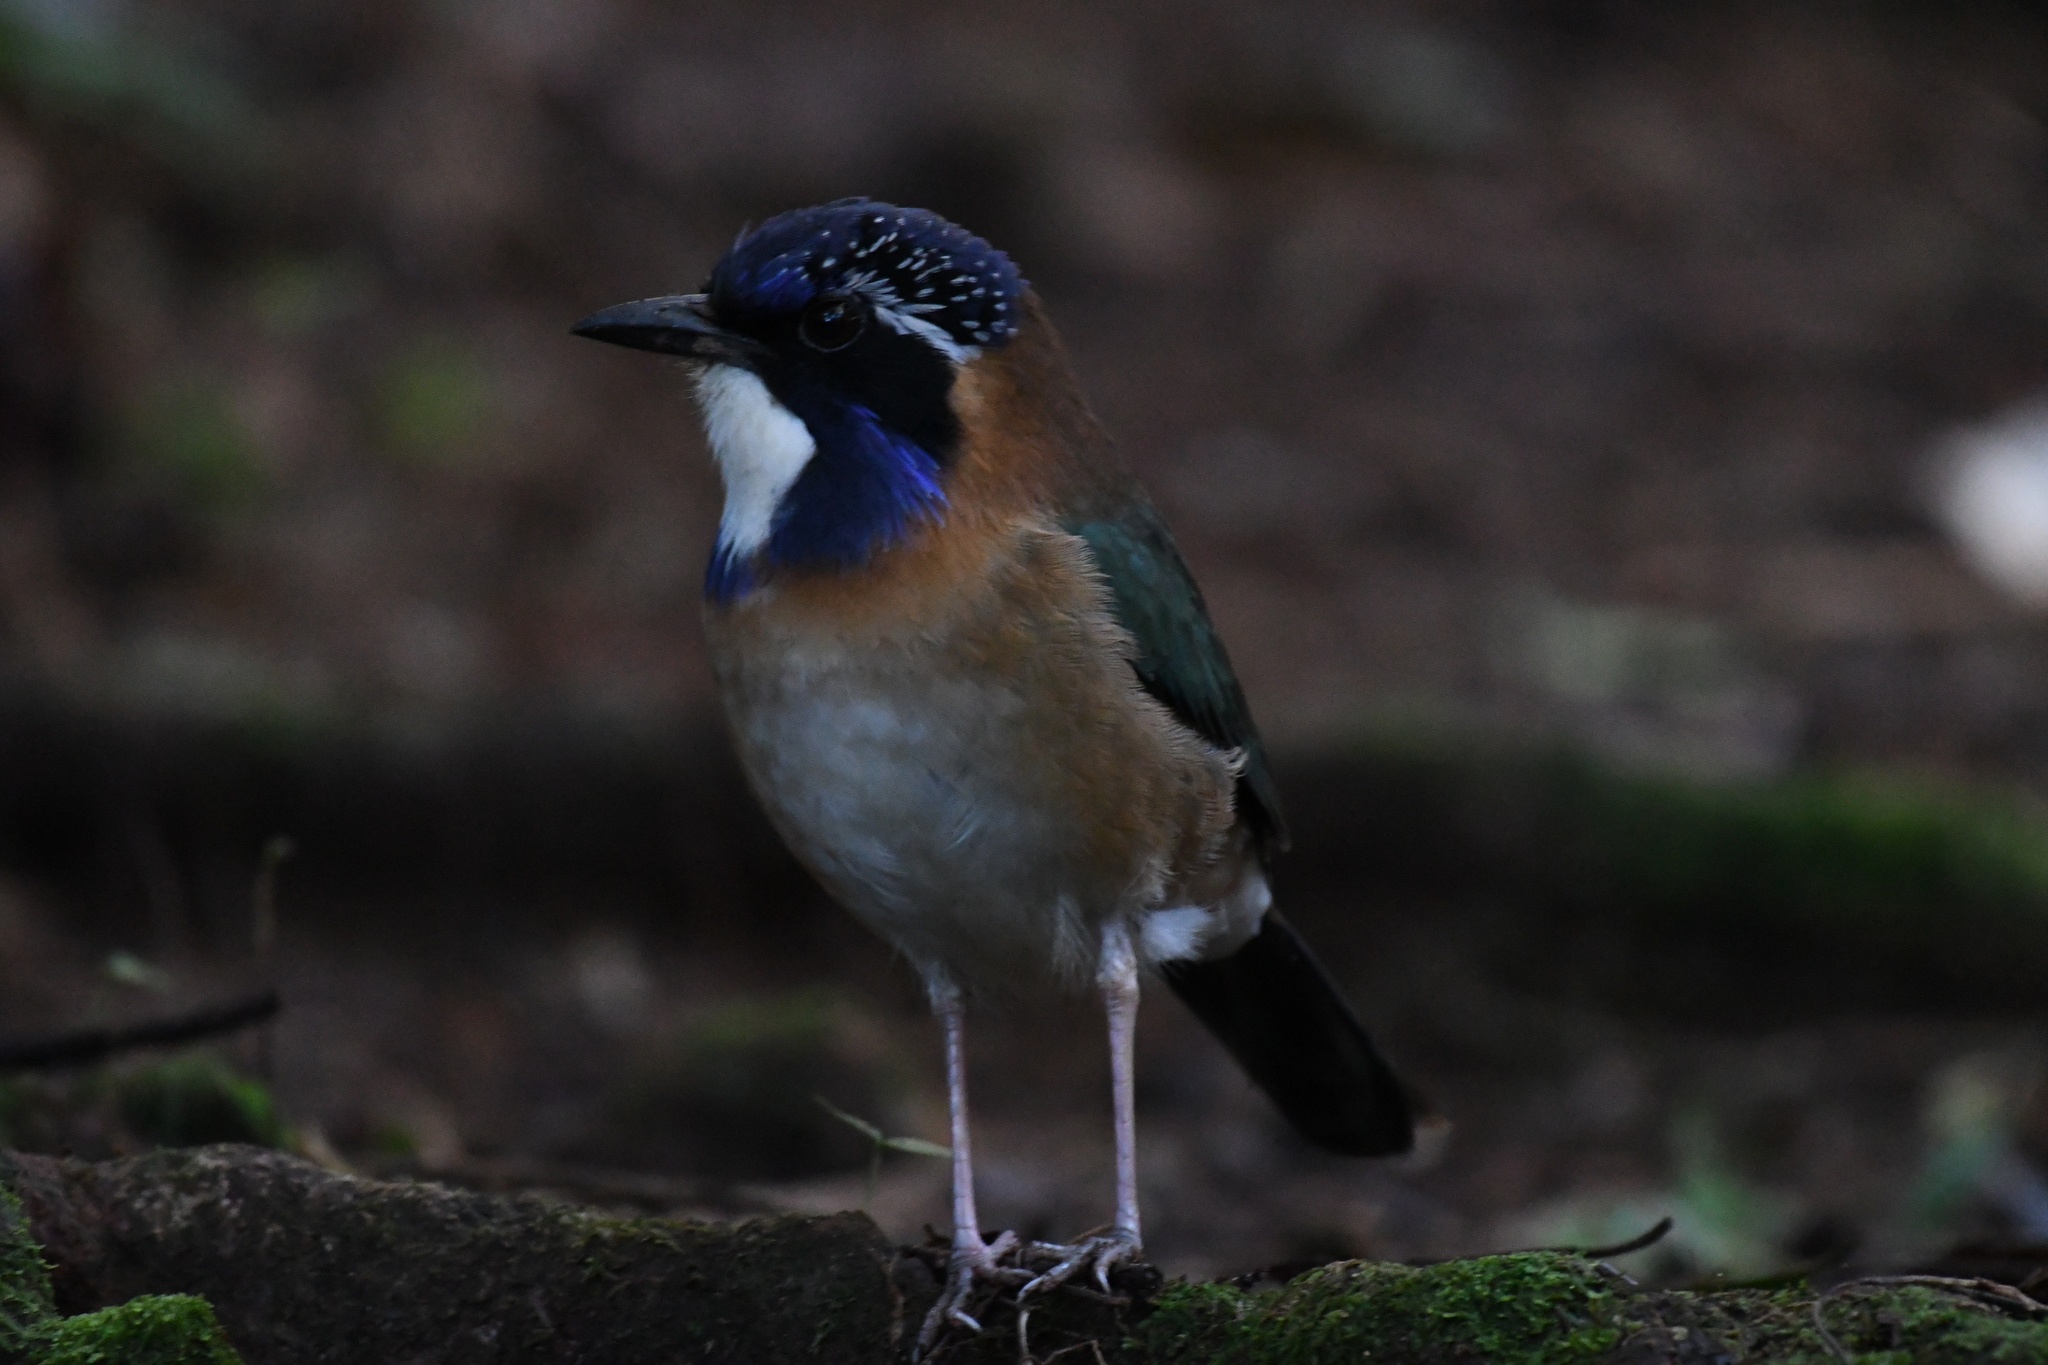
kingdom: Animalia
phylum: Chordata
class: Aves
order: Coraciiformes
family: Brachypteraciidae
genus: Atelornis
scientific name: Atelornis pittoides
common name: Pitta-like ground-roller
